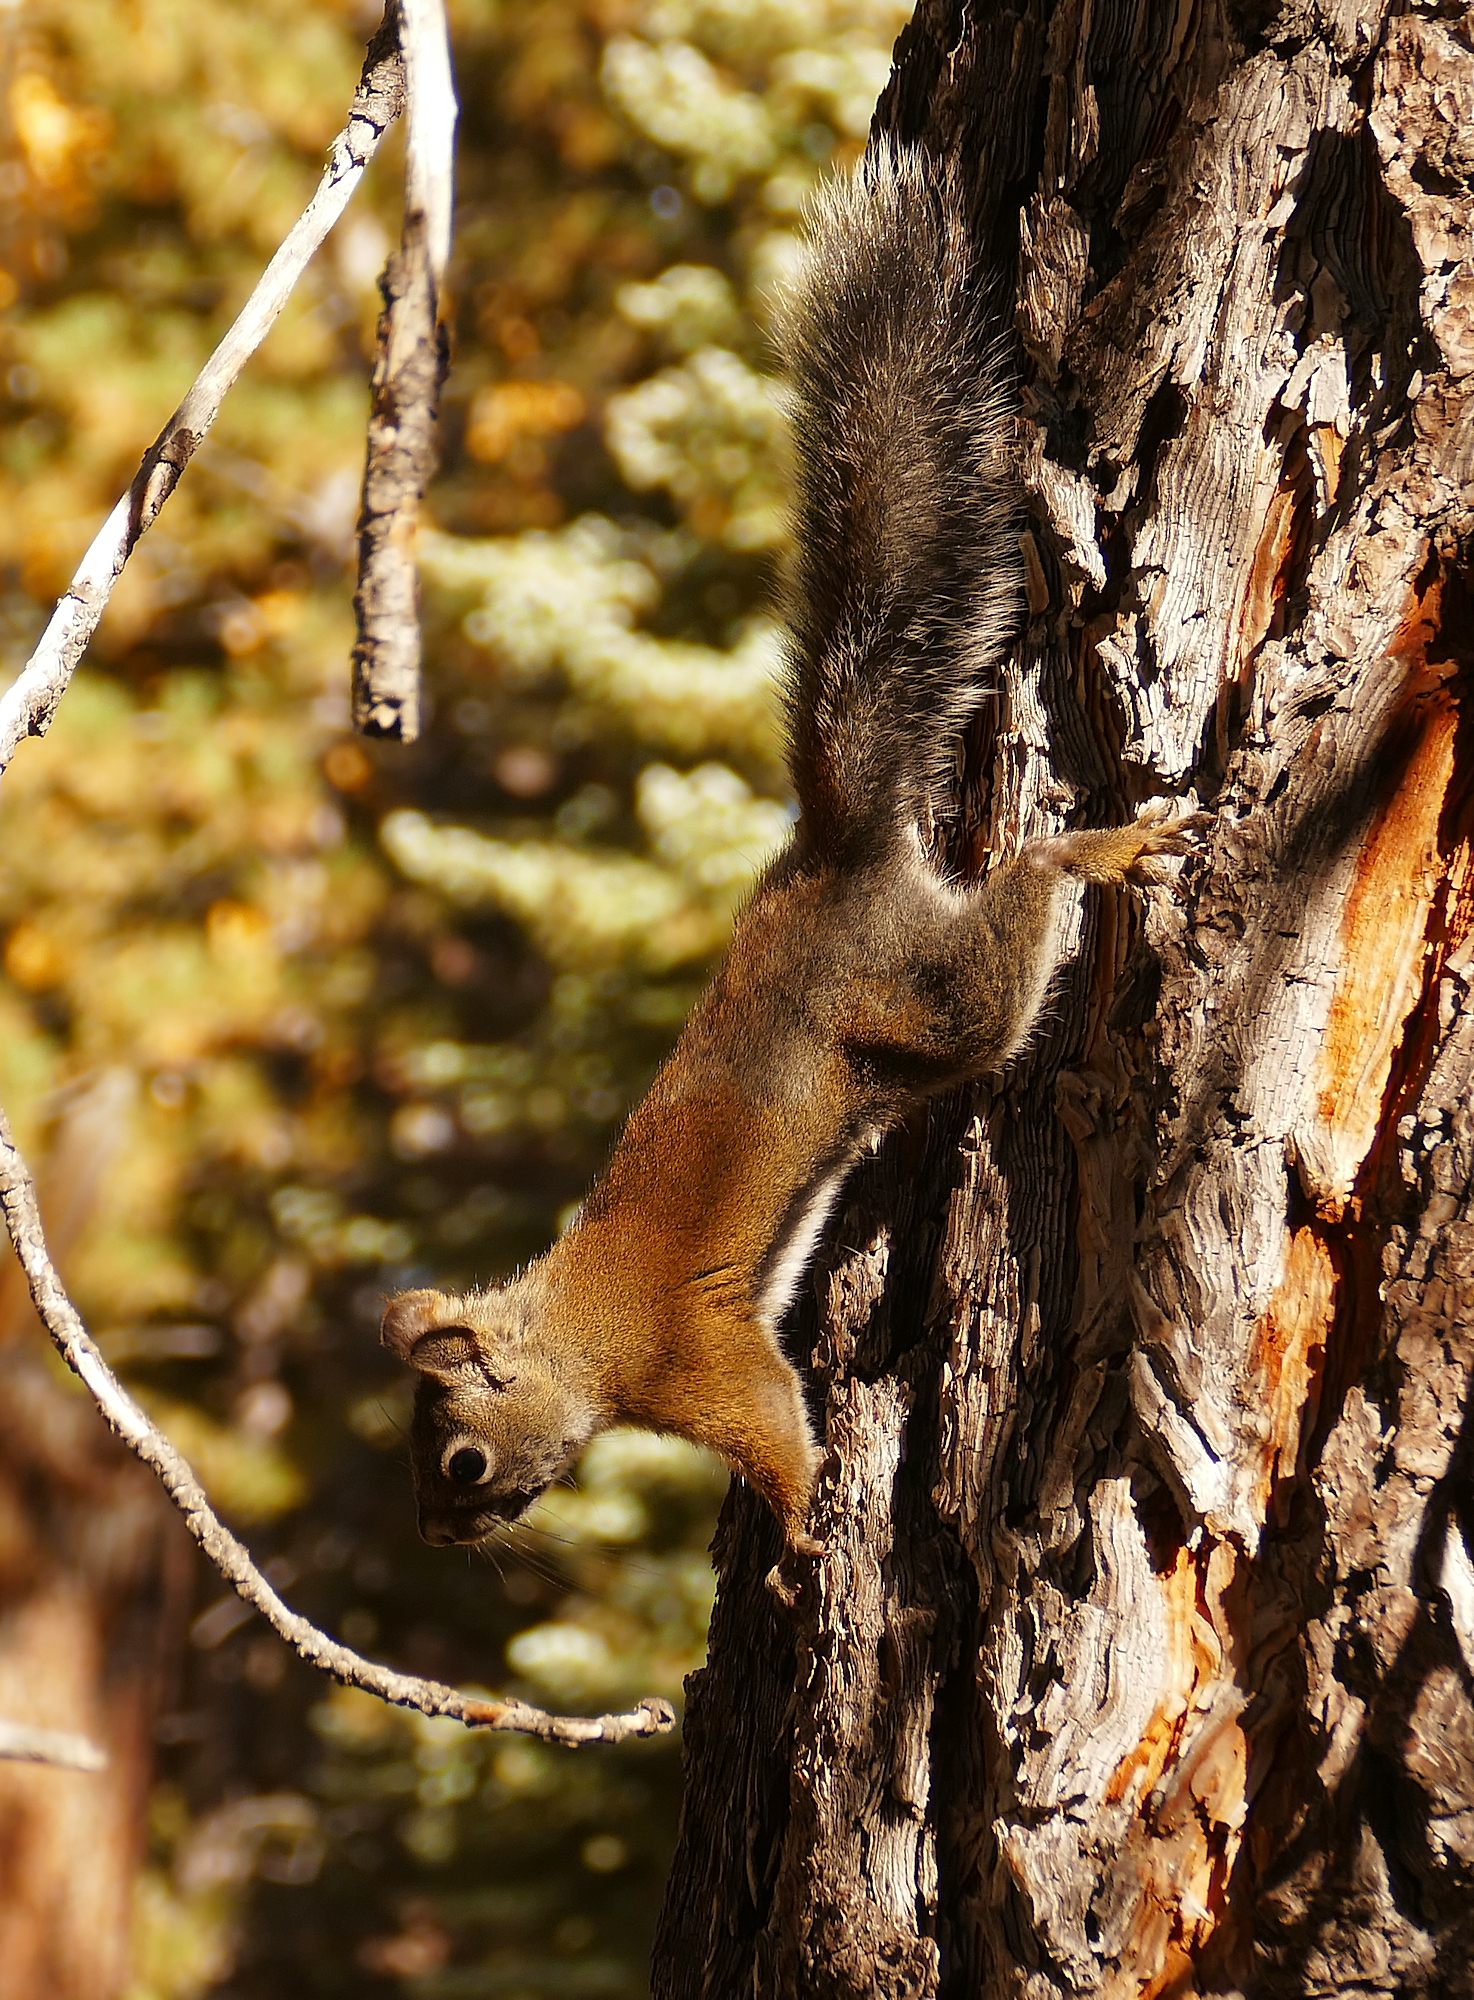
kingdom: Animalia
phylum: Chordata
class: Mammalia
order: Rodentia
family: Sciuridae
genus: Tamiasciurus
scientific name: Tamiasciurus hudsonicus
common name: Red squirrel
